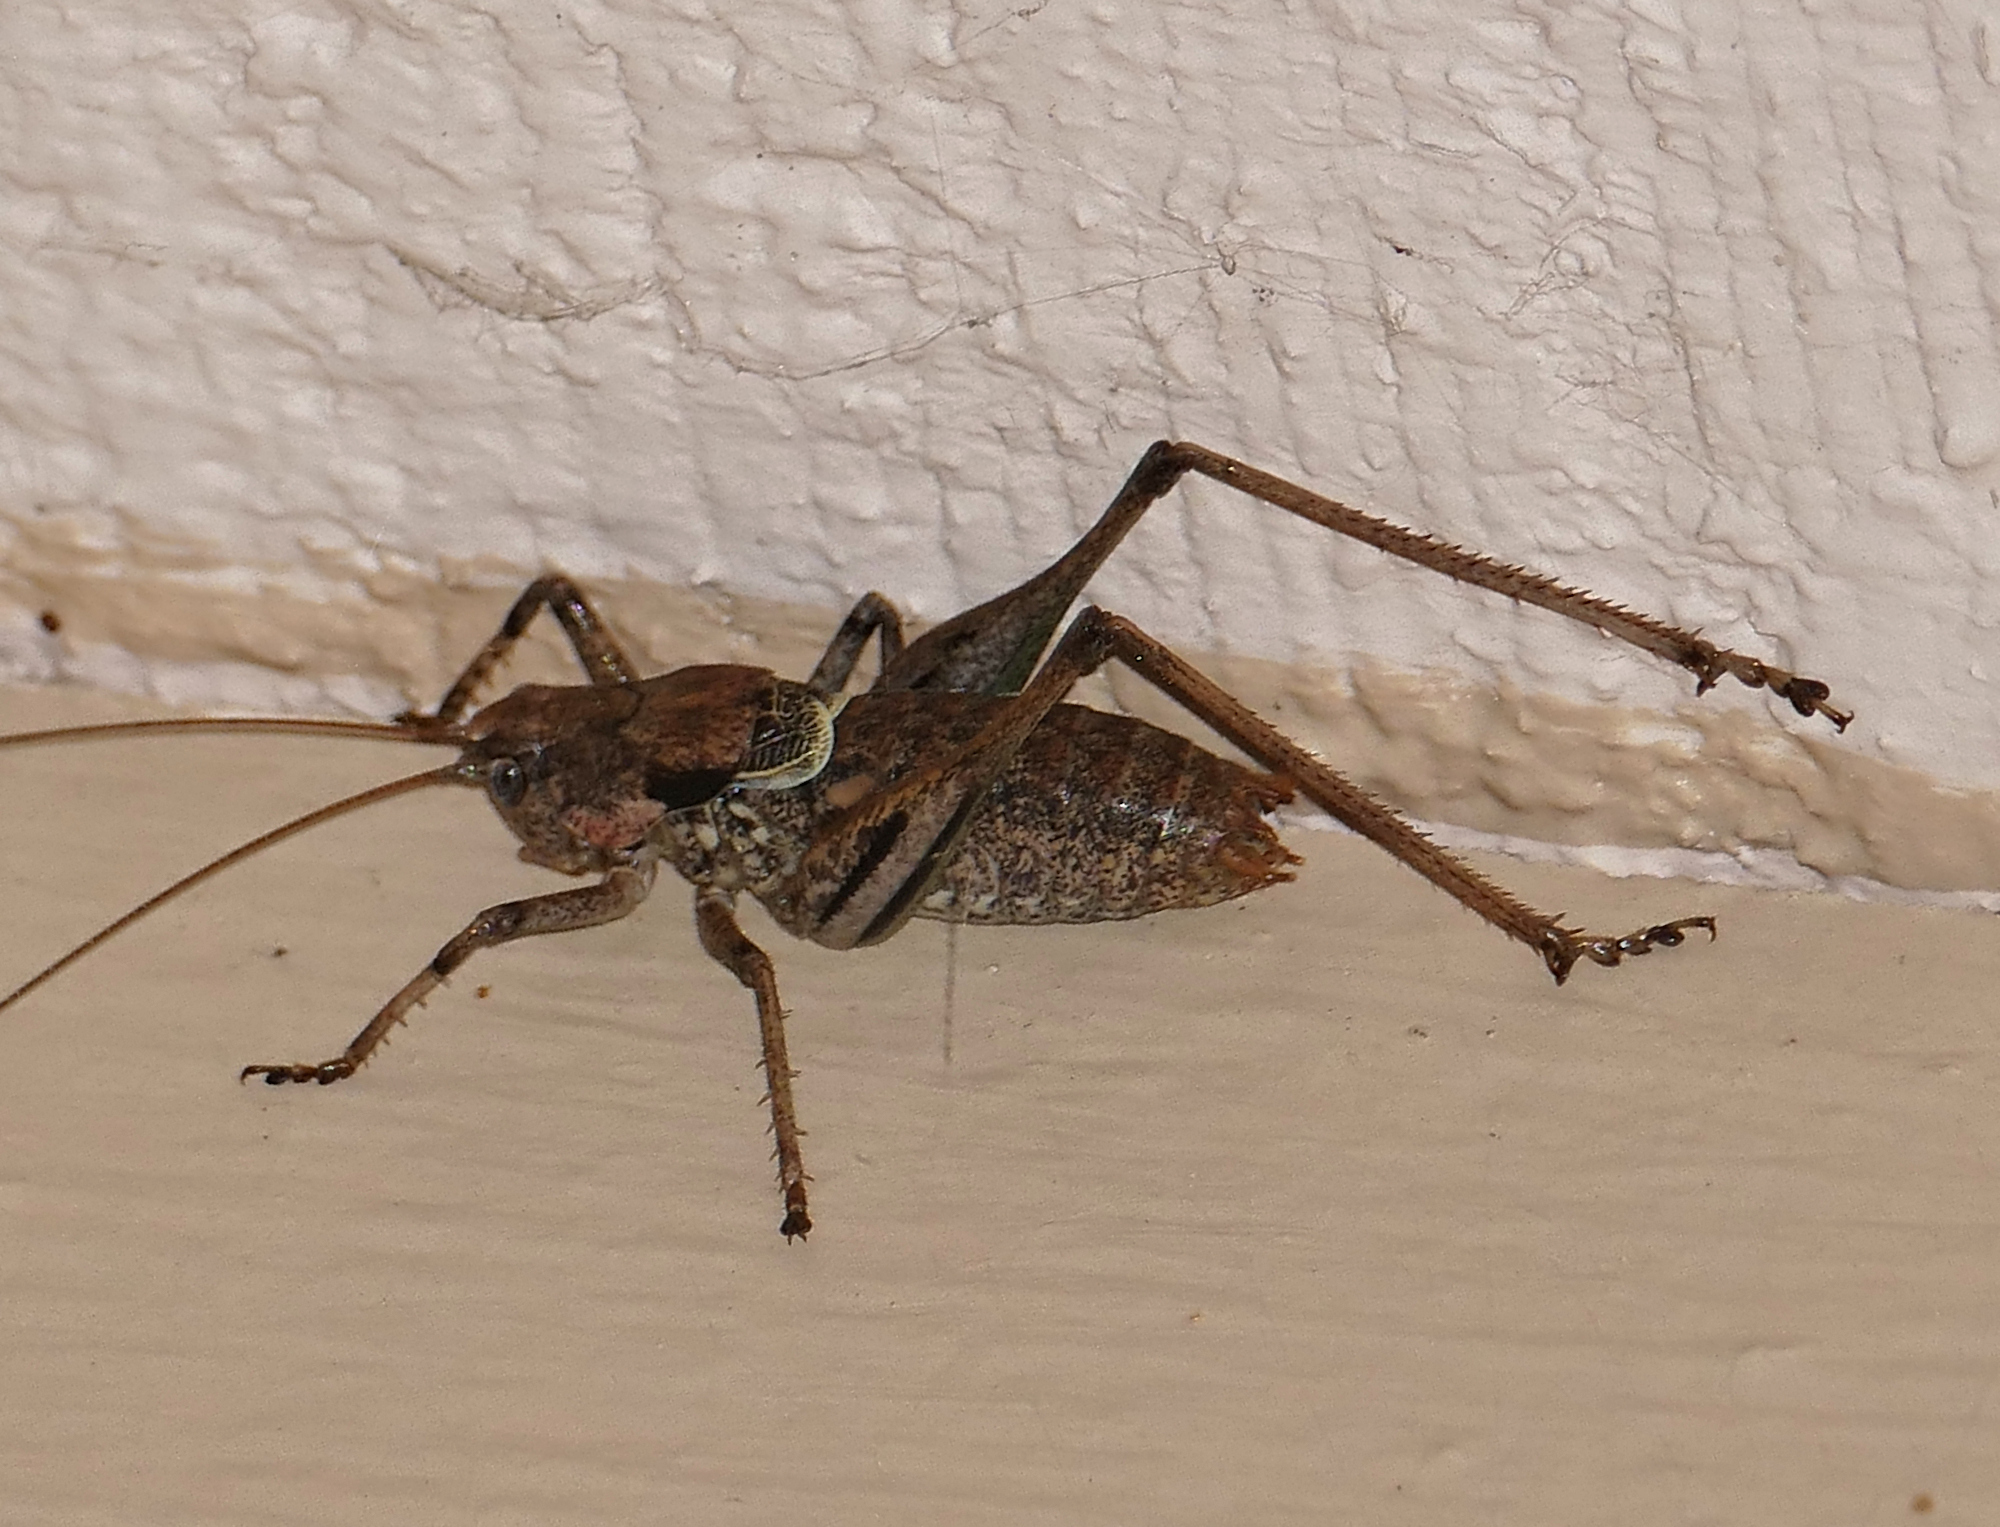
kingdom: Animalia
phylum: Arthropoda
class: Insecta
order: Orthoptera
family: Tettigoniidae
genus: Eremopedes
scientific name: Eremopedes balli
